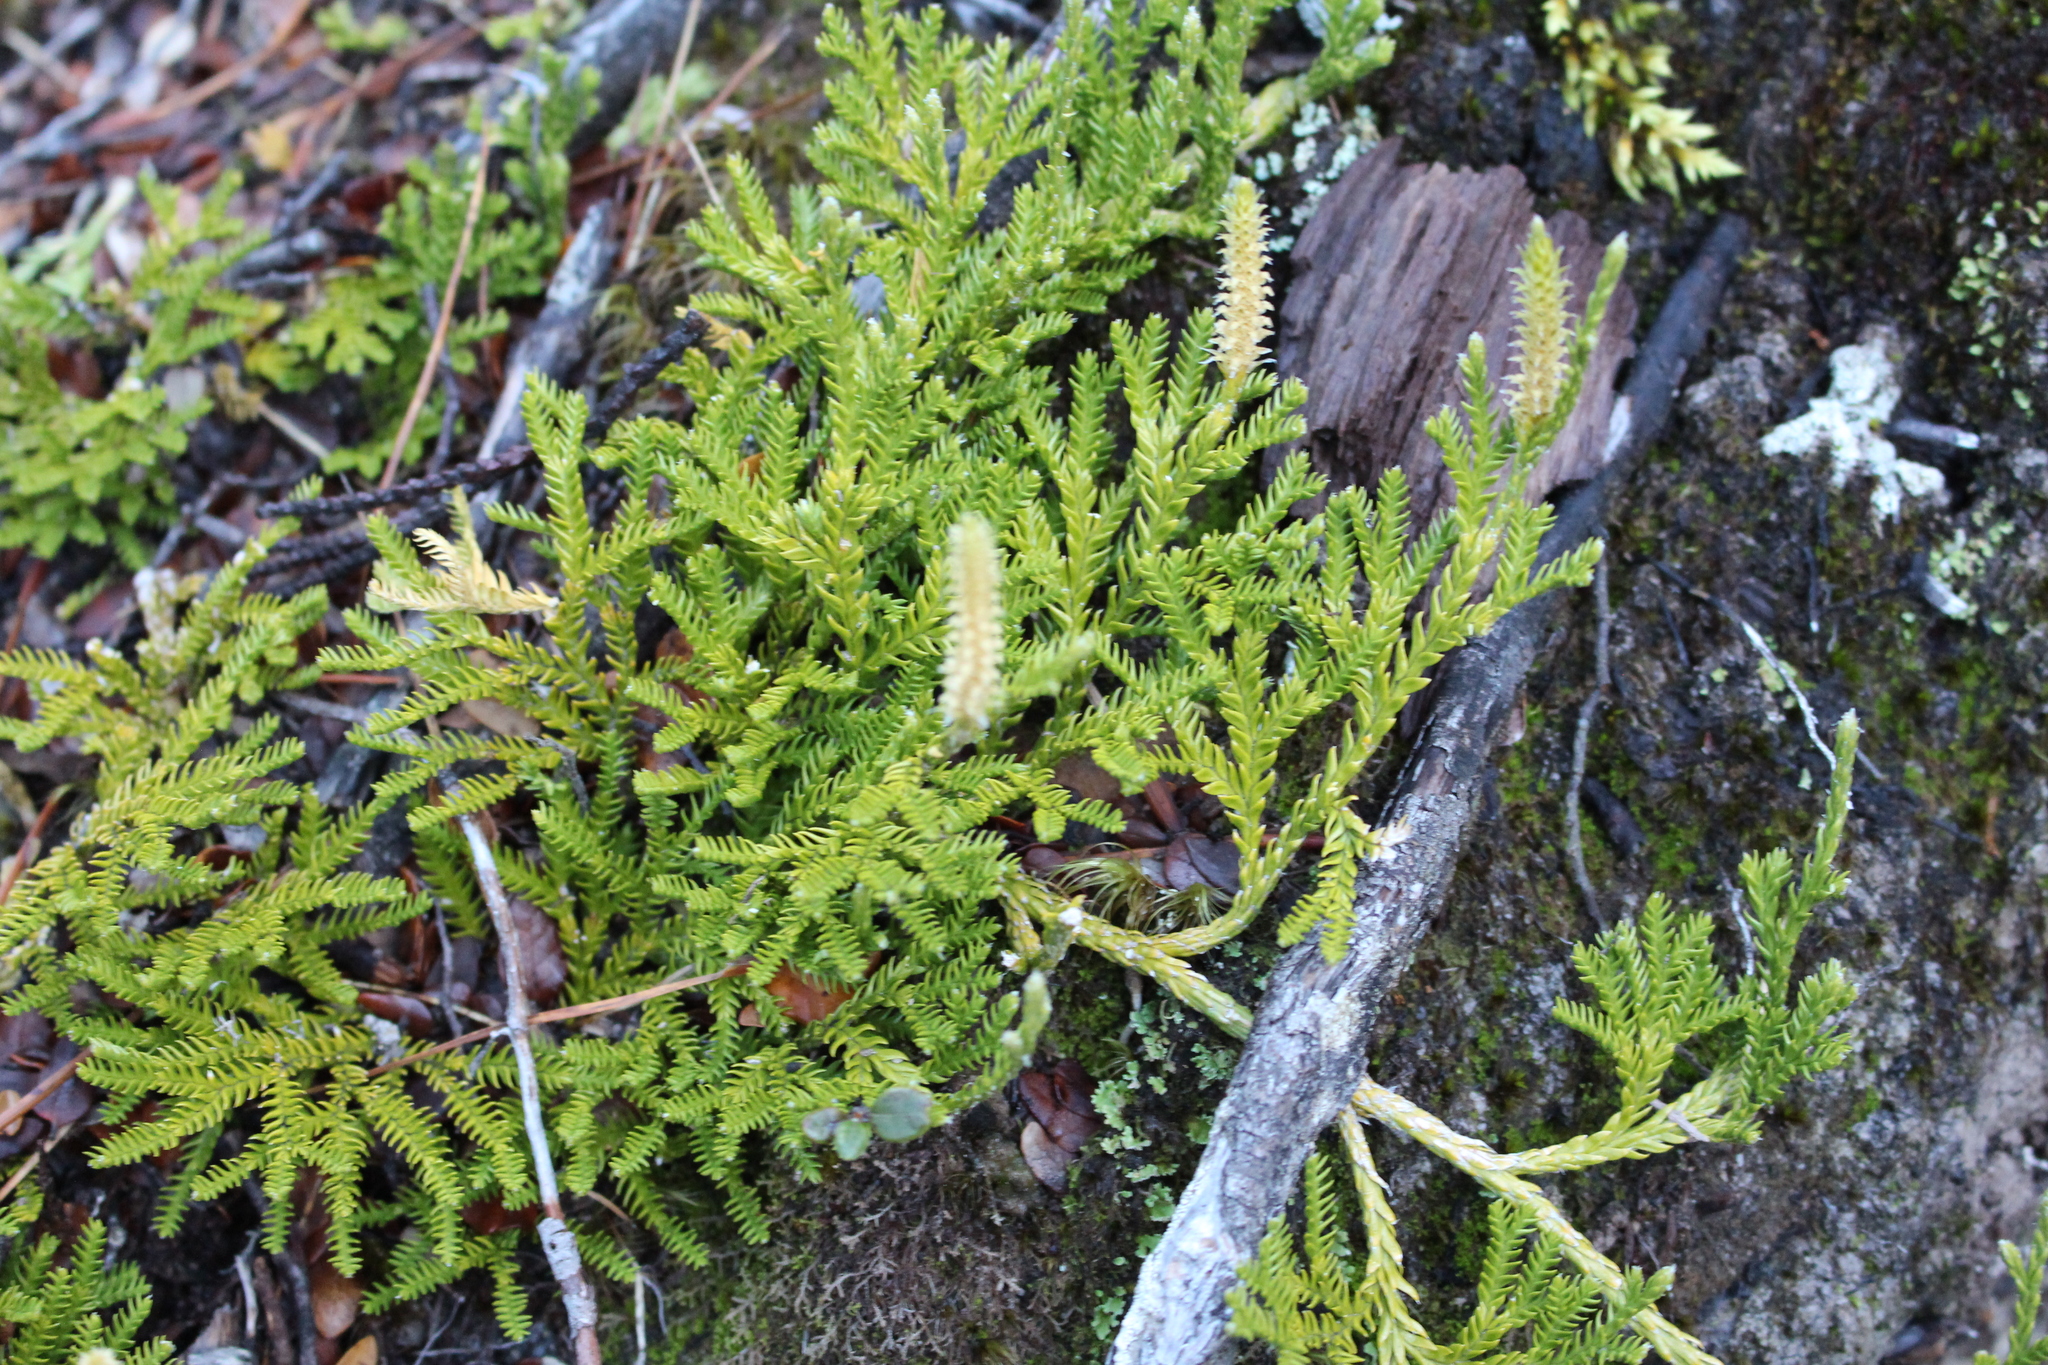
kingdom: Plantae
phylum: Tracheophyta
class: Lycopodiopsida
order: Lycopodiales
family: Lycopodiaceae
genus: Diphasium
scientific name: Diphasium scariosum
